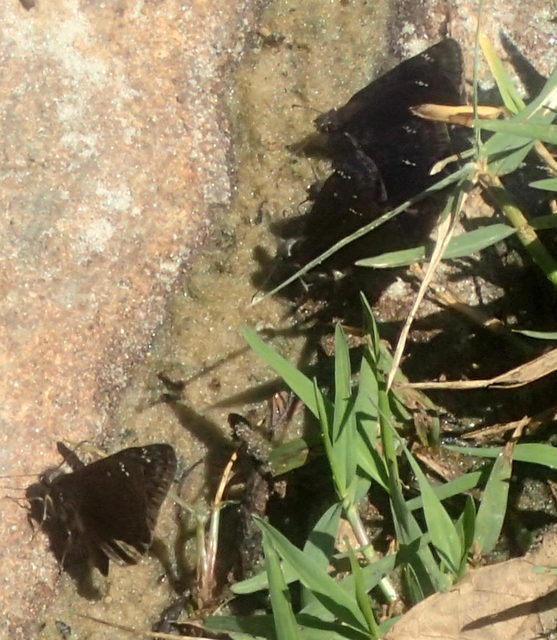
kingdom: Animalia
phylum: Arthropoda
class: Insecta
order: Lepidoptera
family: Hesperiidae
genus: Erynnis
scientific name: Erynnis horatius
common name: Horace's duskywing
